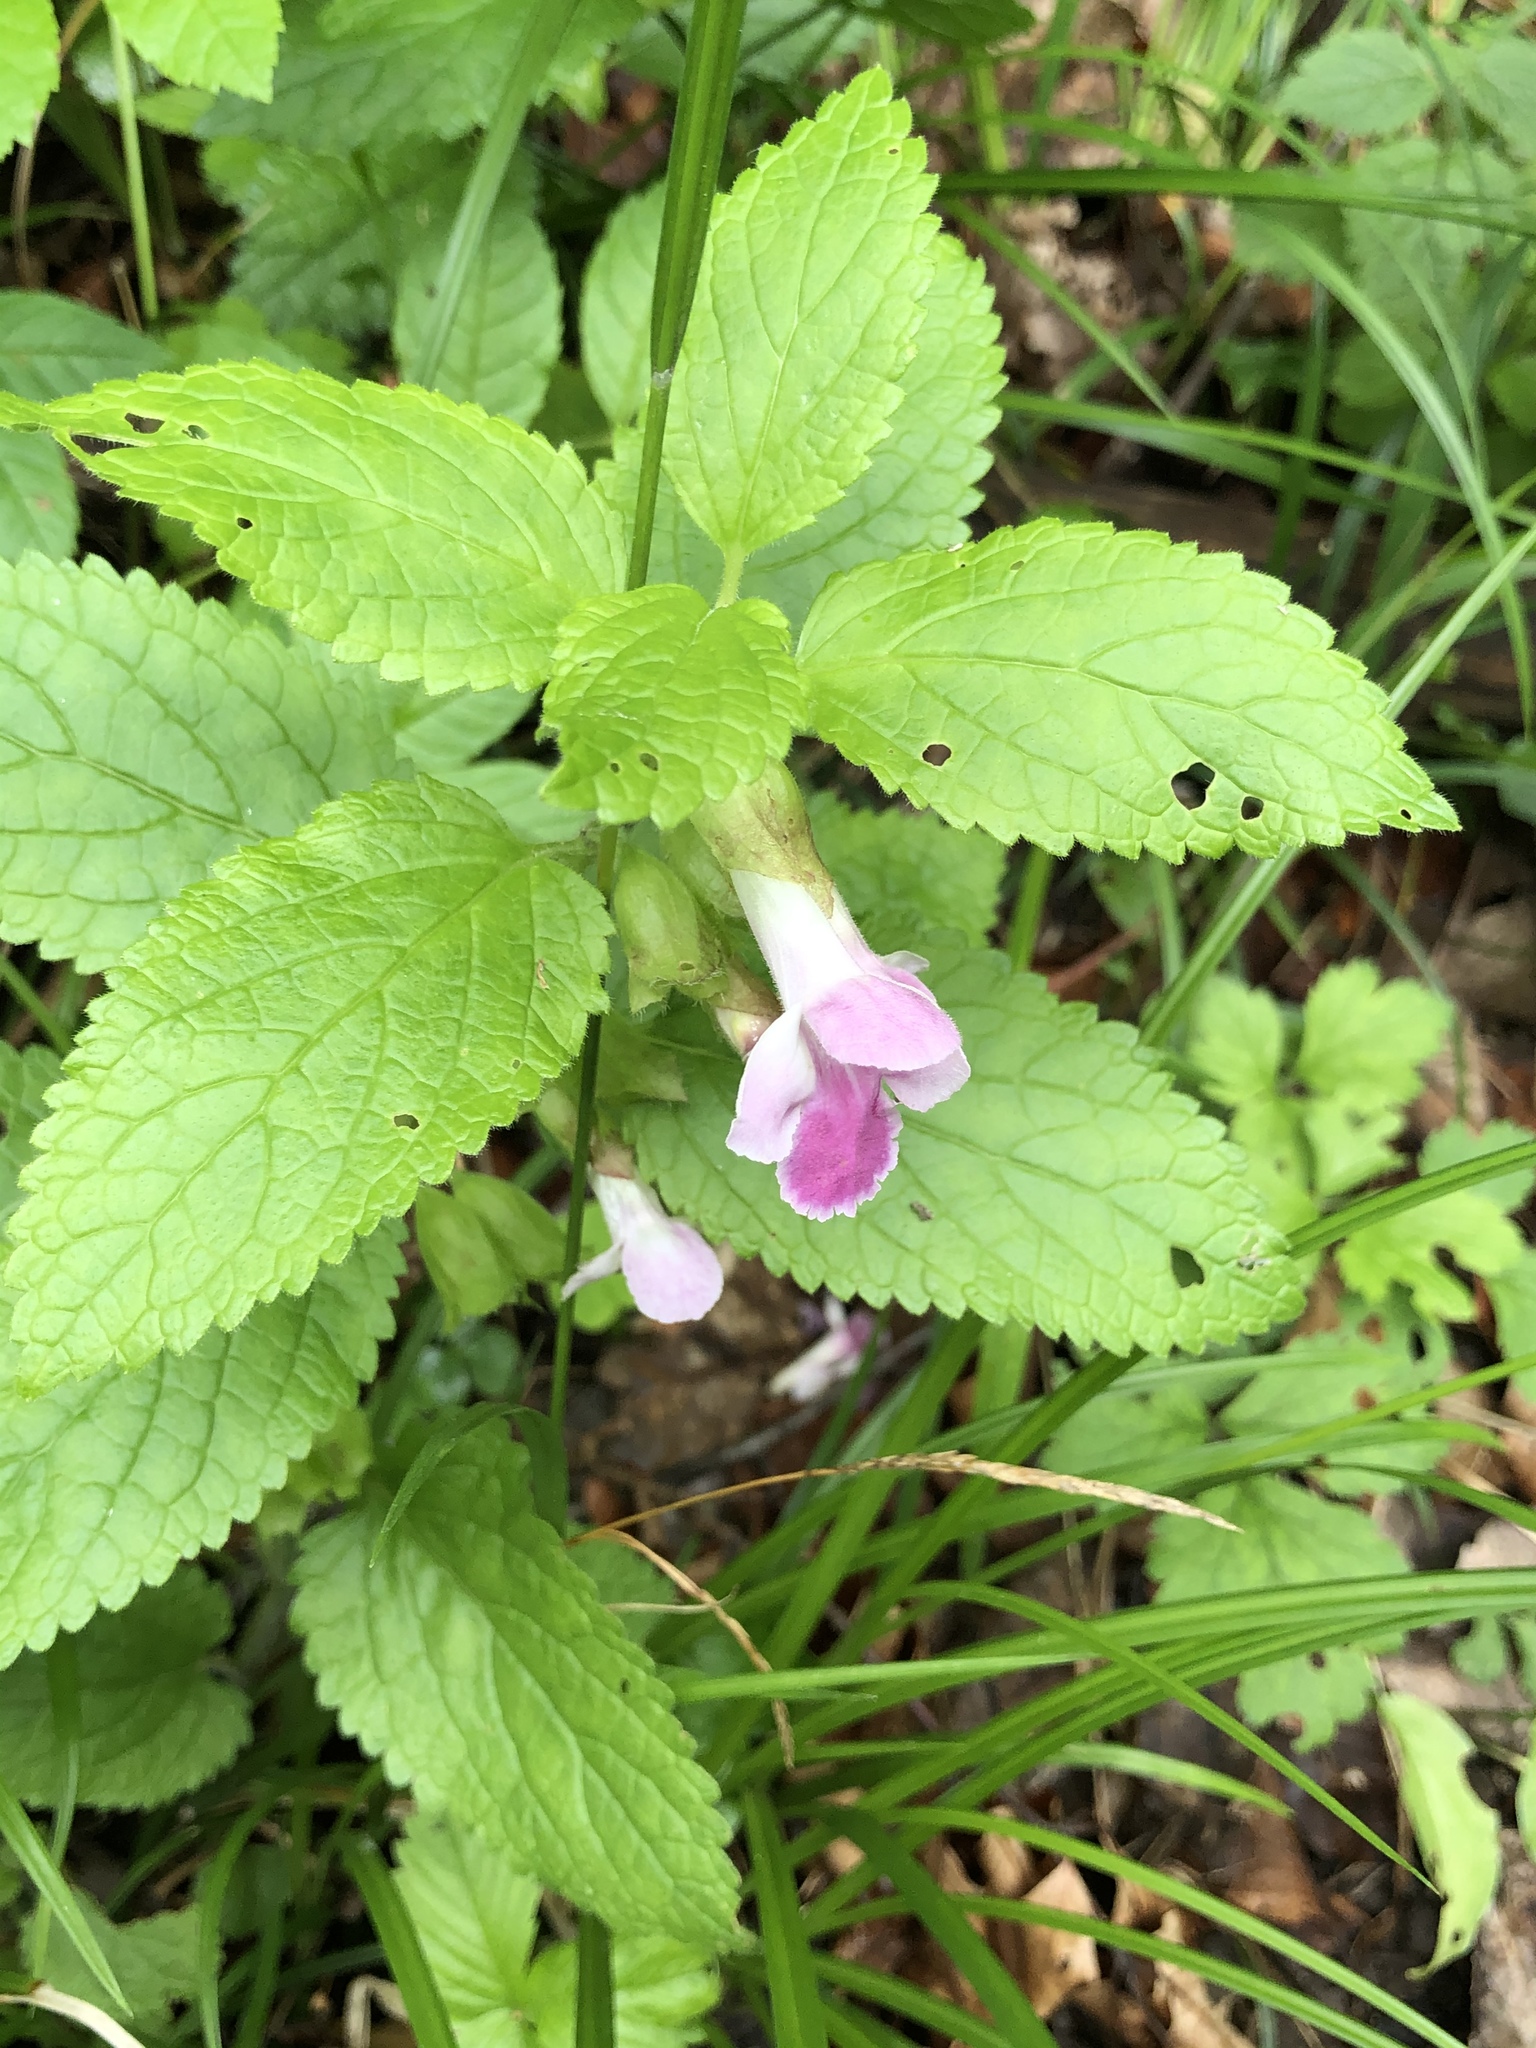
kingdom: Plantae
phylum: Tracheophyta
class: Magnoliopsida
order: Lamiales
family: Lamiaceae
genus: Melittis
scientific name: Melittis melissophyllum
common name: Bastard balm
